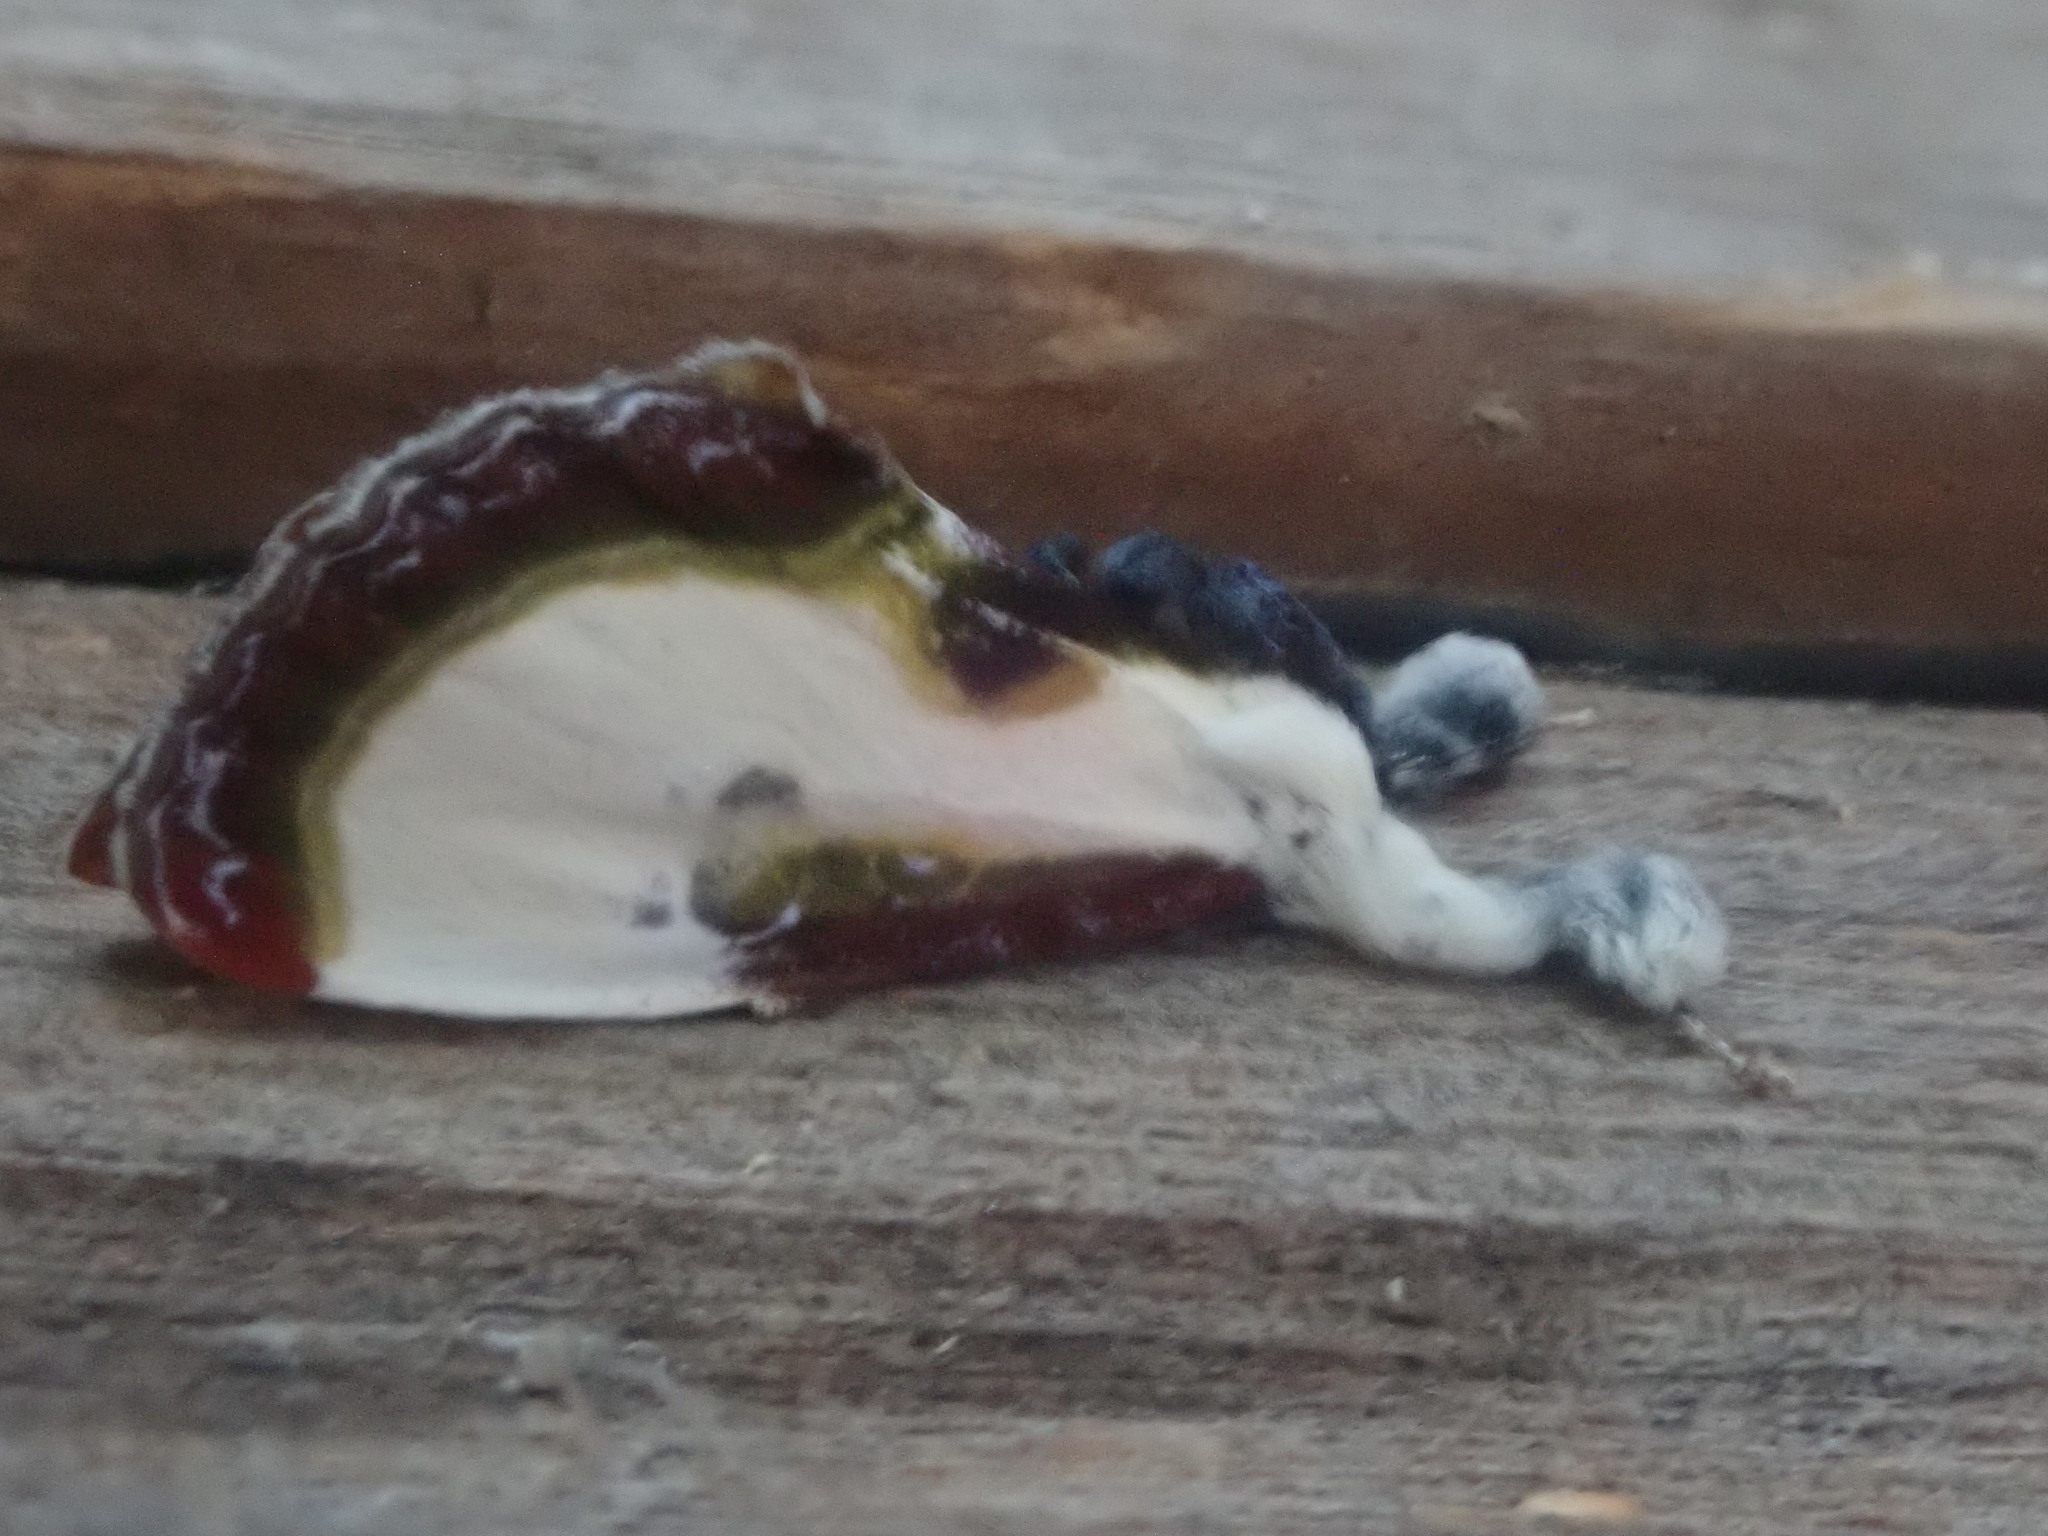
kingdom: Animalia
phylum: Arthropoda
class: Insecta
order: Lepidoptera
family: Noctuidae
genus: Eudryas
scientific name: Eudryas grata
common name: Beautiful wood-nymph
